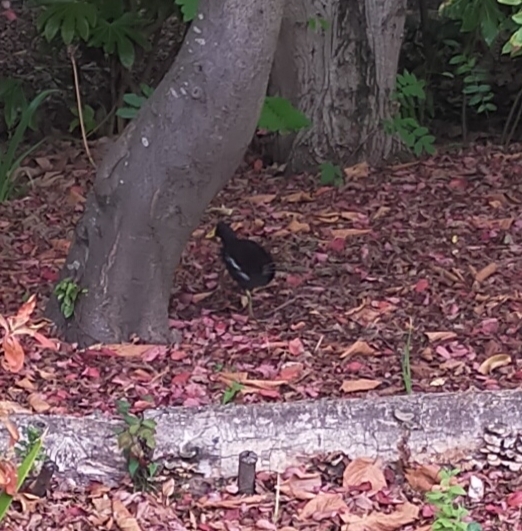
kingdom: Animalia
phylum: Chordata
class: Aves
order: Gruiformes
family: Rallidae
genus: Gallinula
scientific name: Gallinula chloropus
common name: Common moorhen
